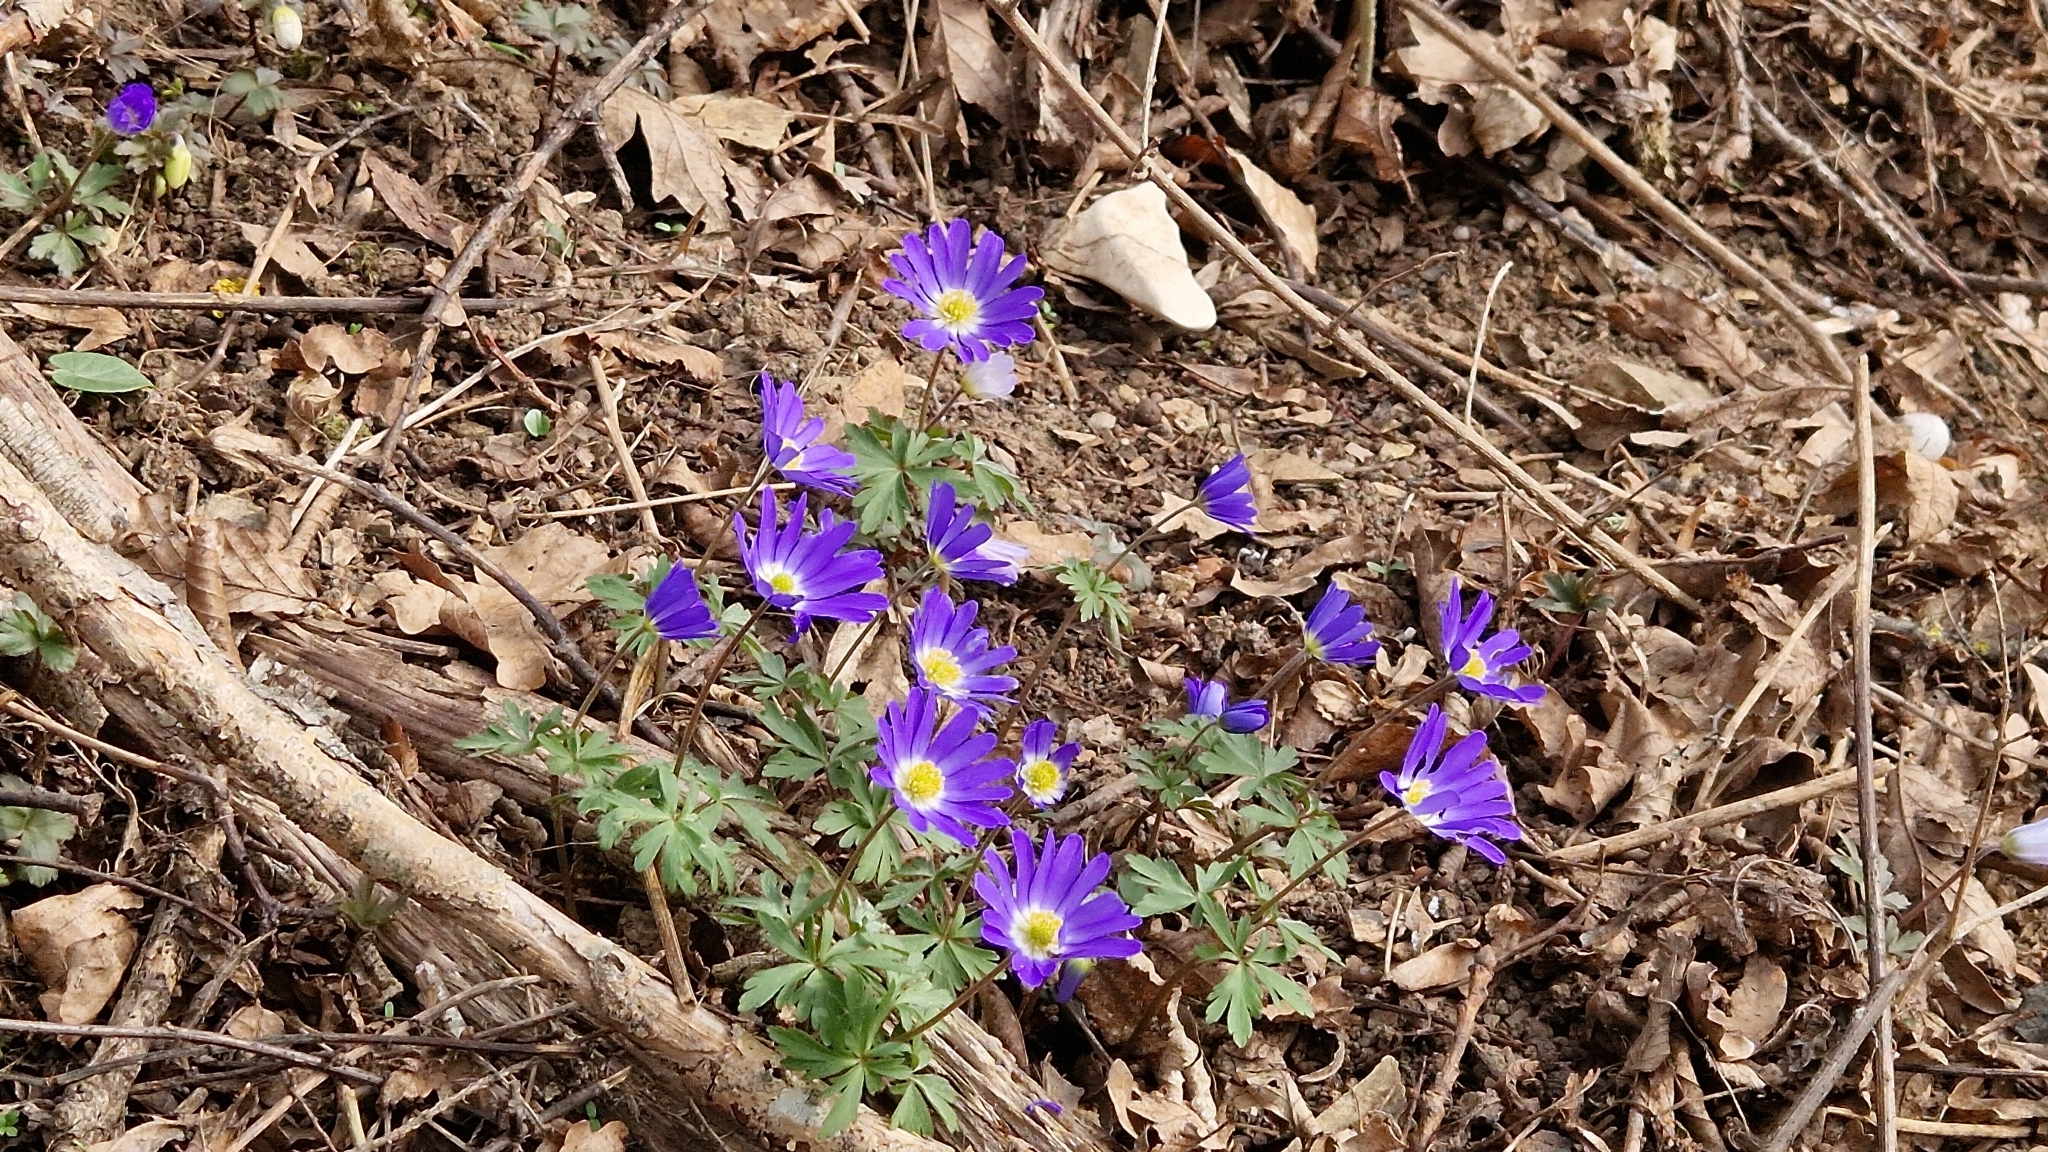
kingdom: Plantae
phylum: Tracheophyta
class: Magnoliopsida
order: Ranunculales
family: Ranunculaceae
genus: Anemone
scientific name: Anemone blanda
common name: Balkan anemone
